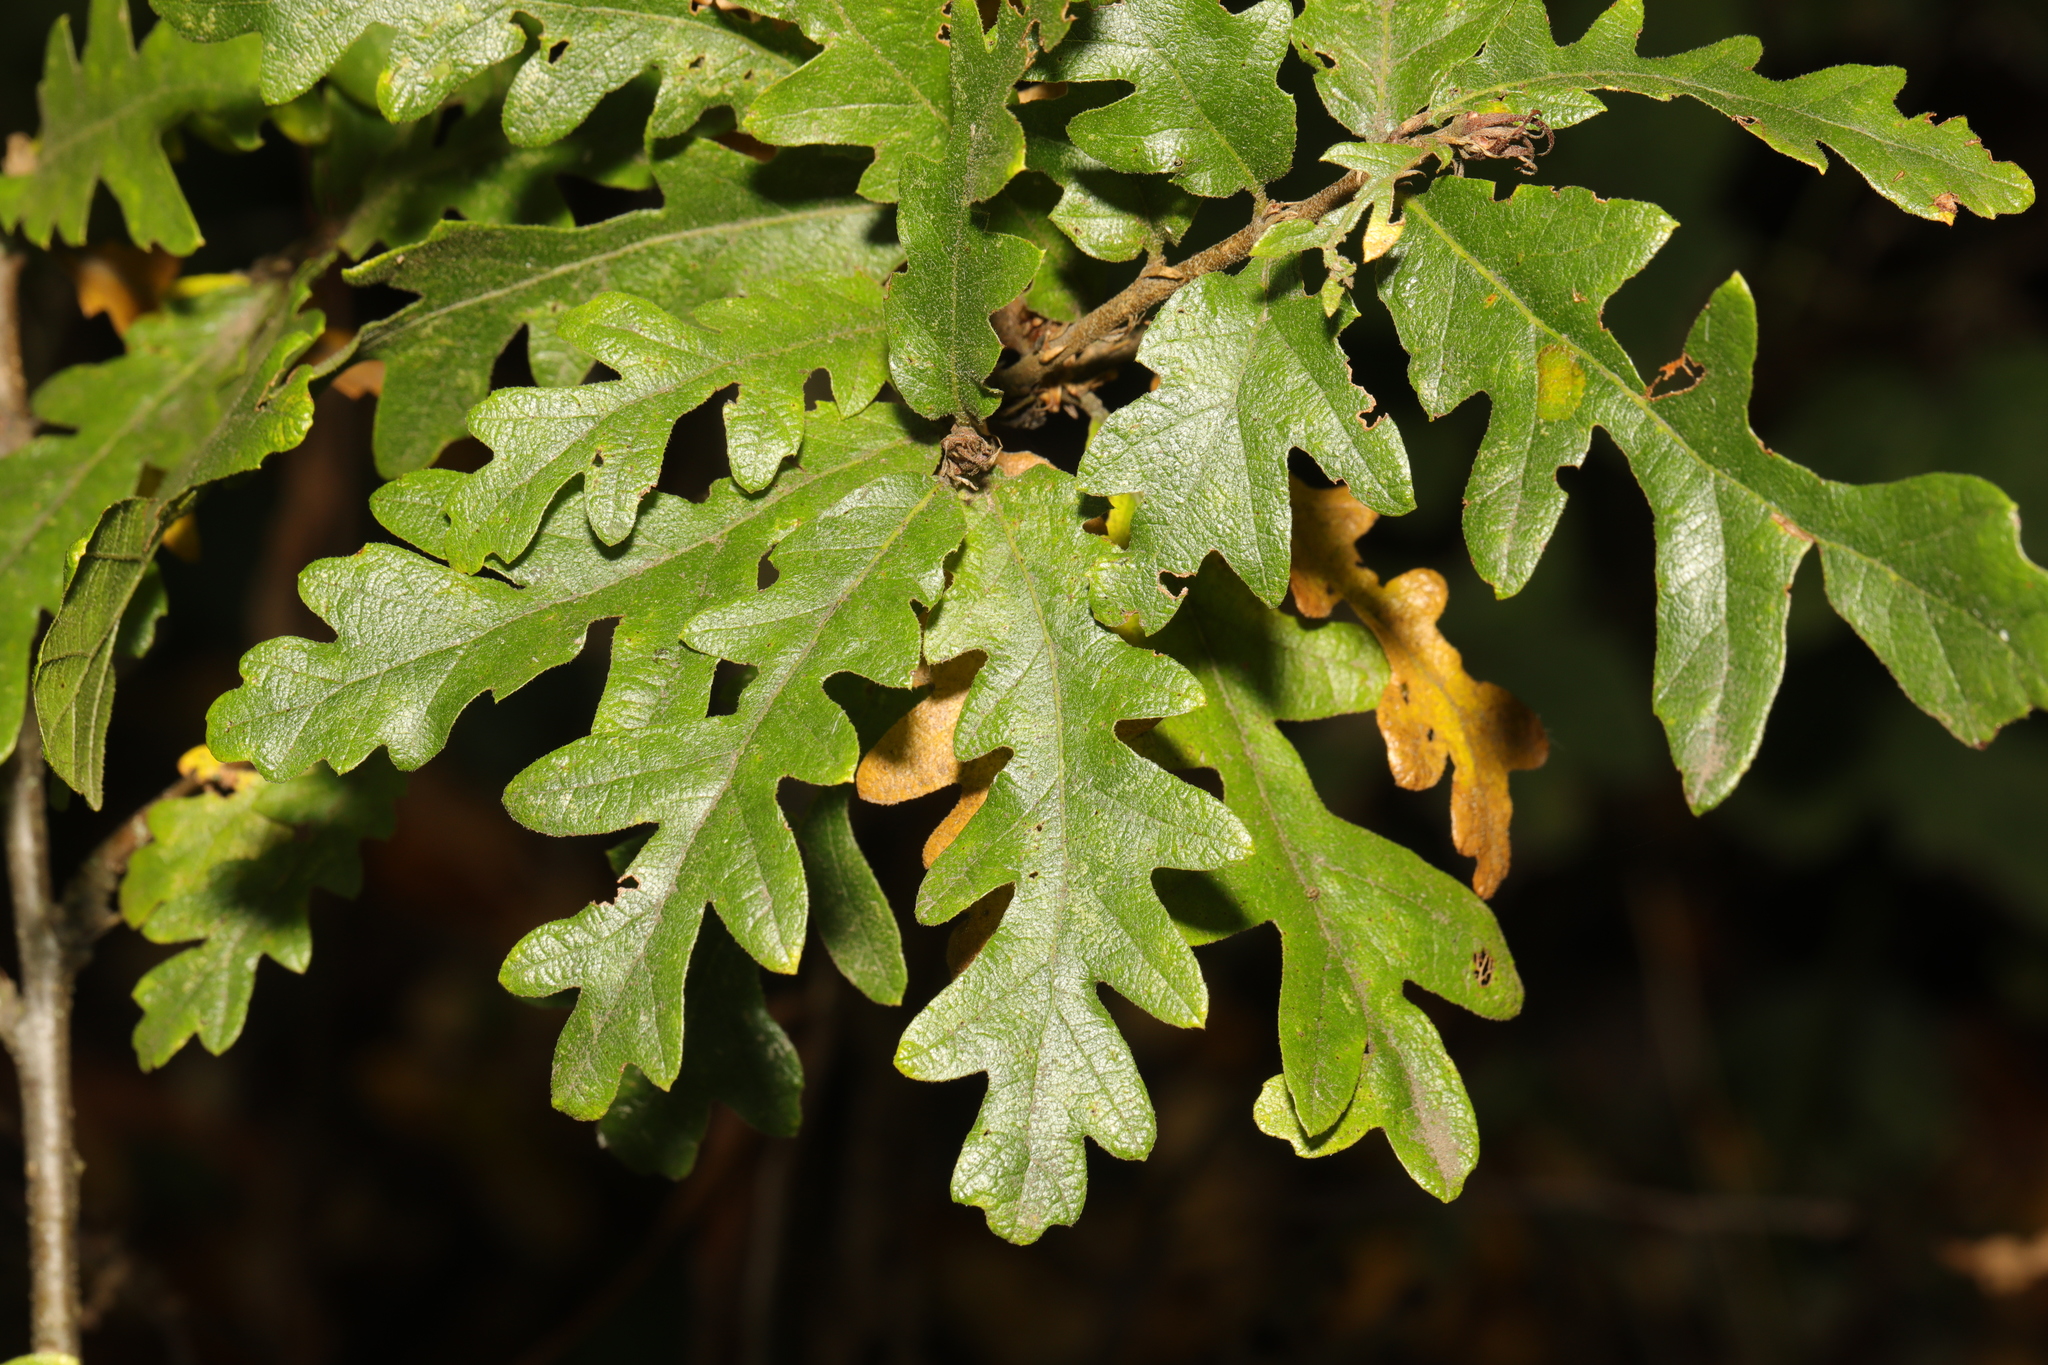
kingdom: Plantae
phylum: Tracheophyta
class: Magnoliopsida
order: Fagales
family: Fagaceae
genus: Quercus
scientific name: Quercus cerris
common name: Turkey oak
